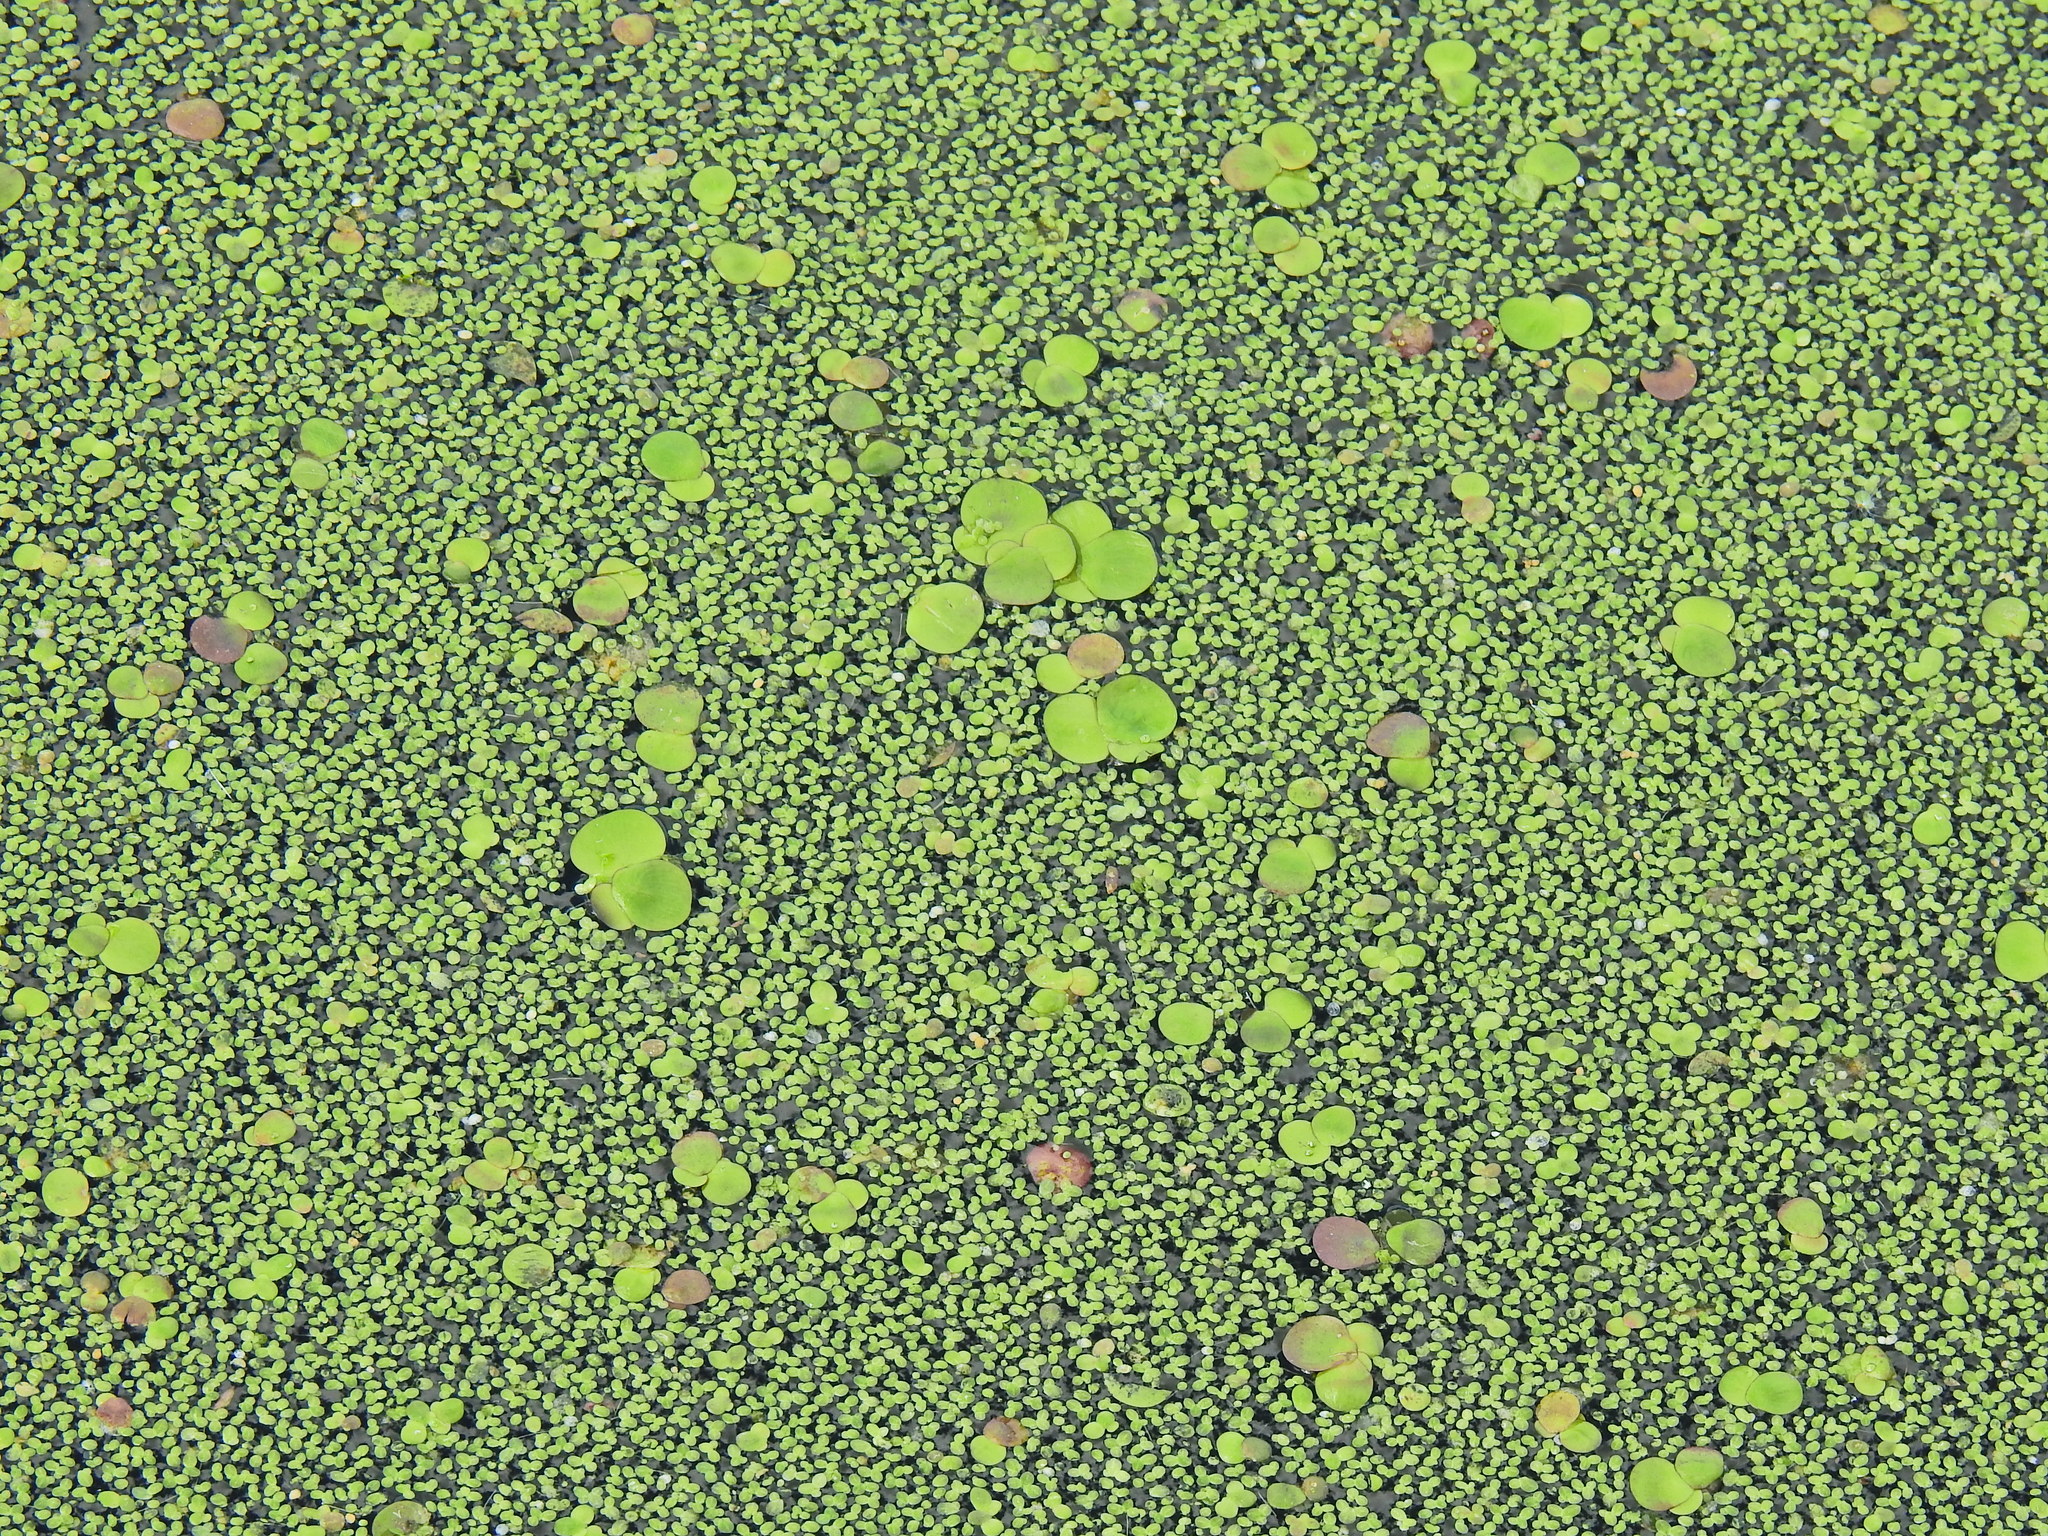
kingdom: Plantae
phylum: Tracheophyta
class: Liliopsida
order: Alismatales
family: Araceae
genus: Lemna
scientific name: Lemna minor
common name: Common duckweed
